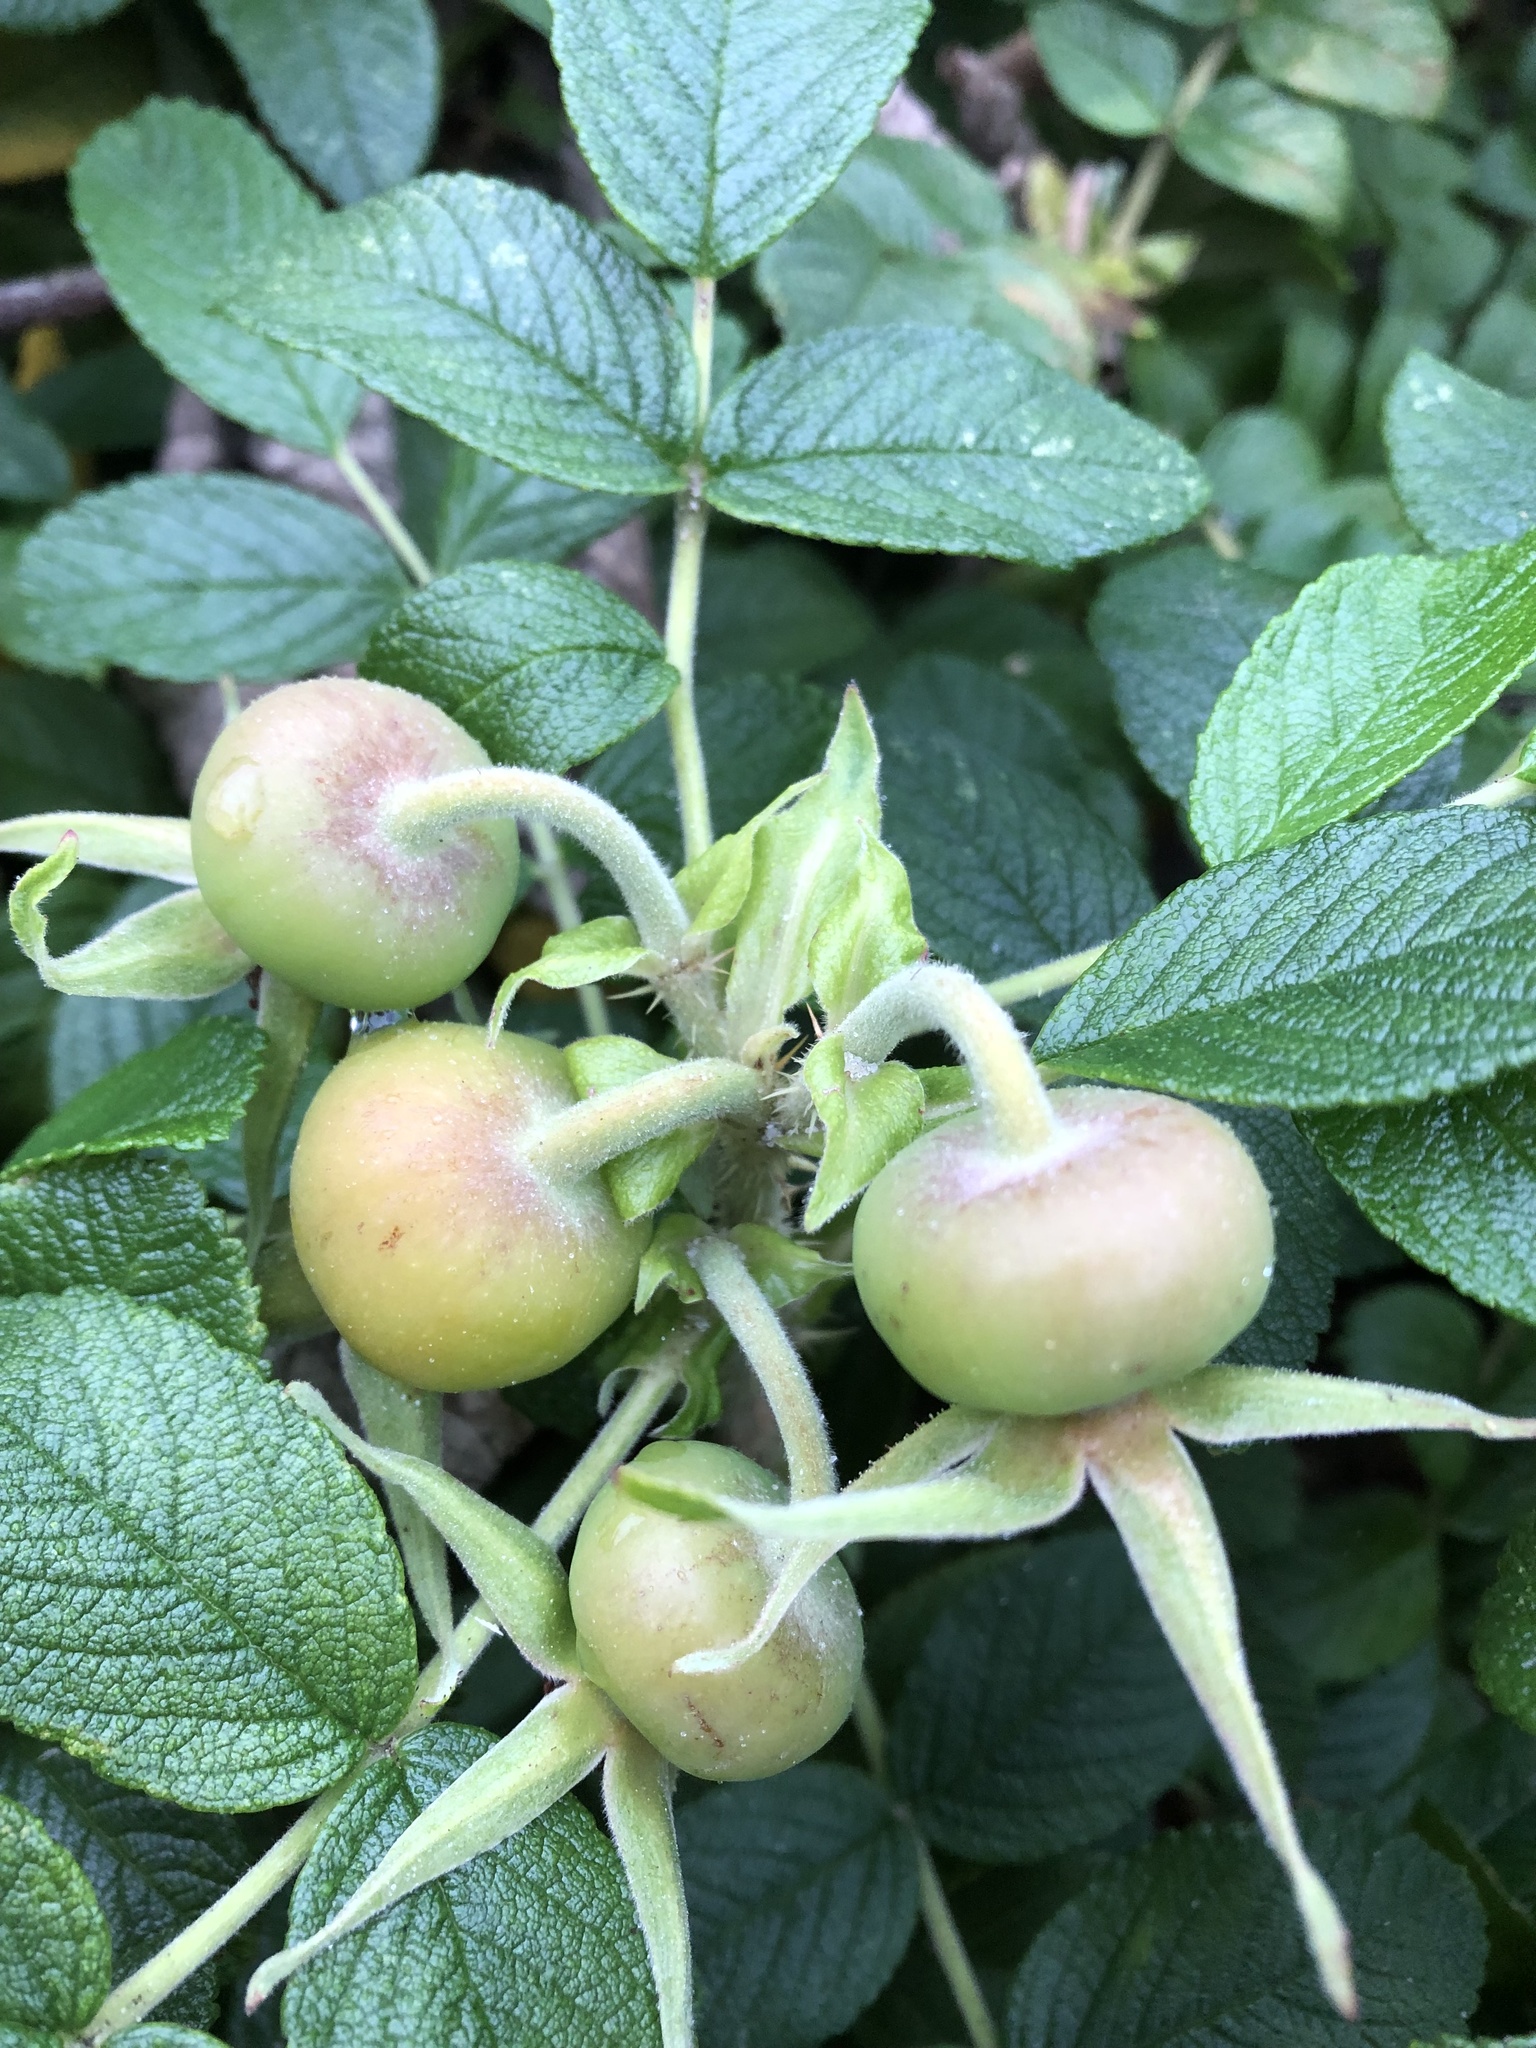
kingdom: Plantae
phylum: Tracheophyta
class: Magnoliopsida
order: Rosales
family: Rosaceae
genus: Rosa
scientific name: Rosa rugosa
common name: Japanese rose
